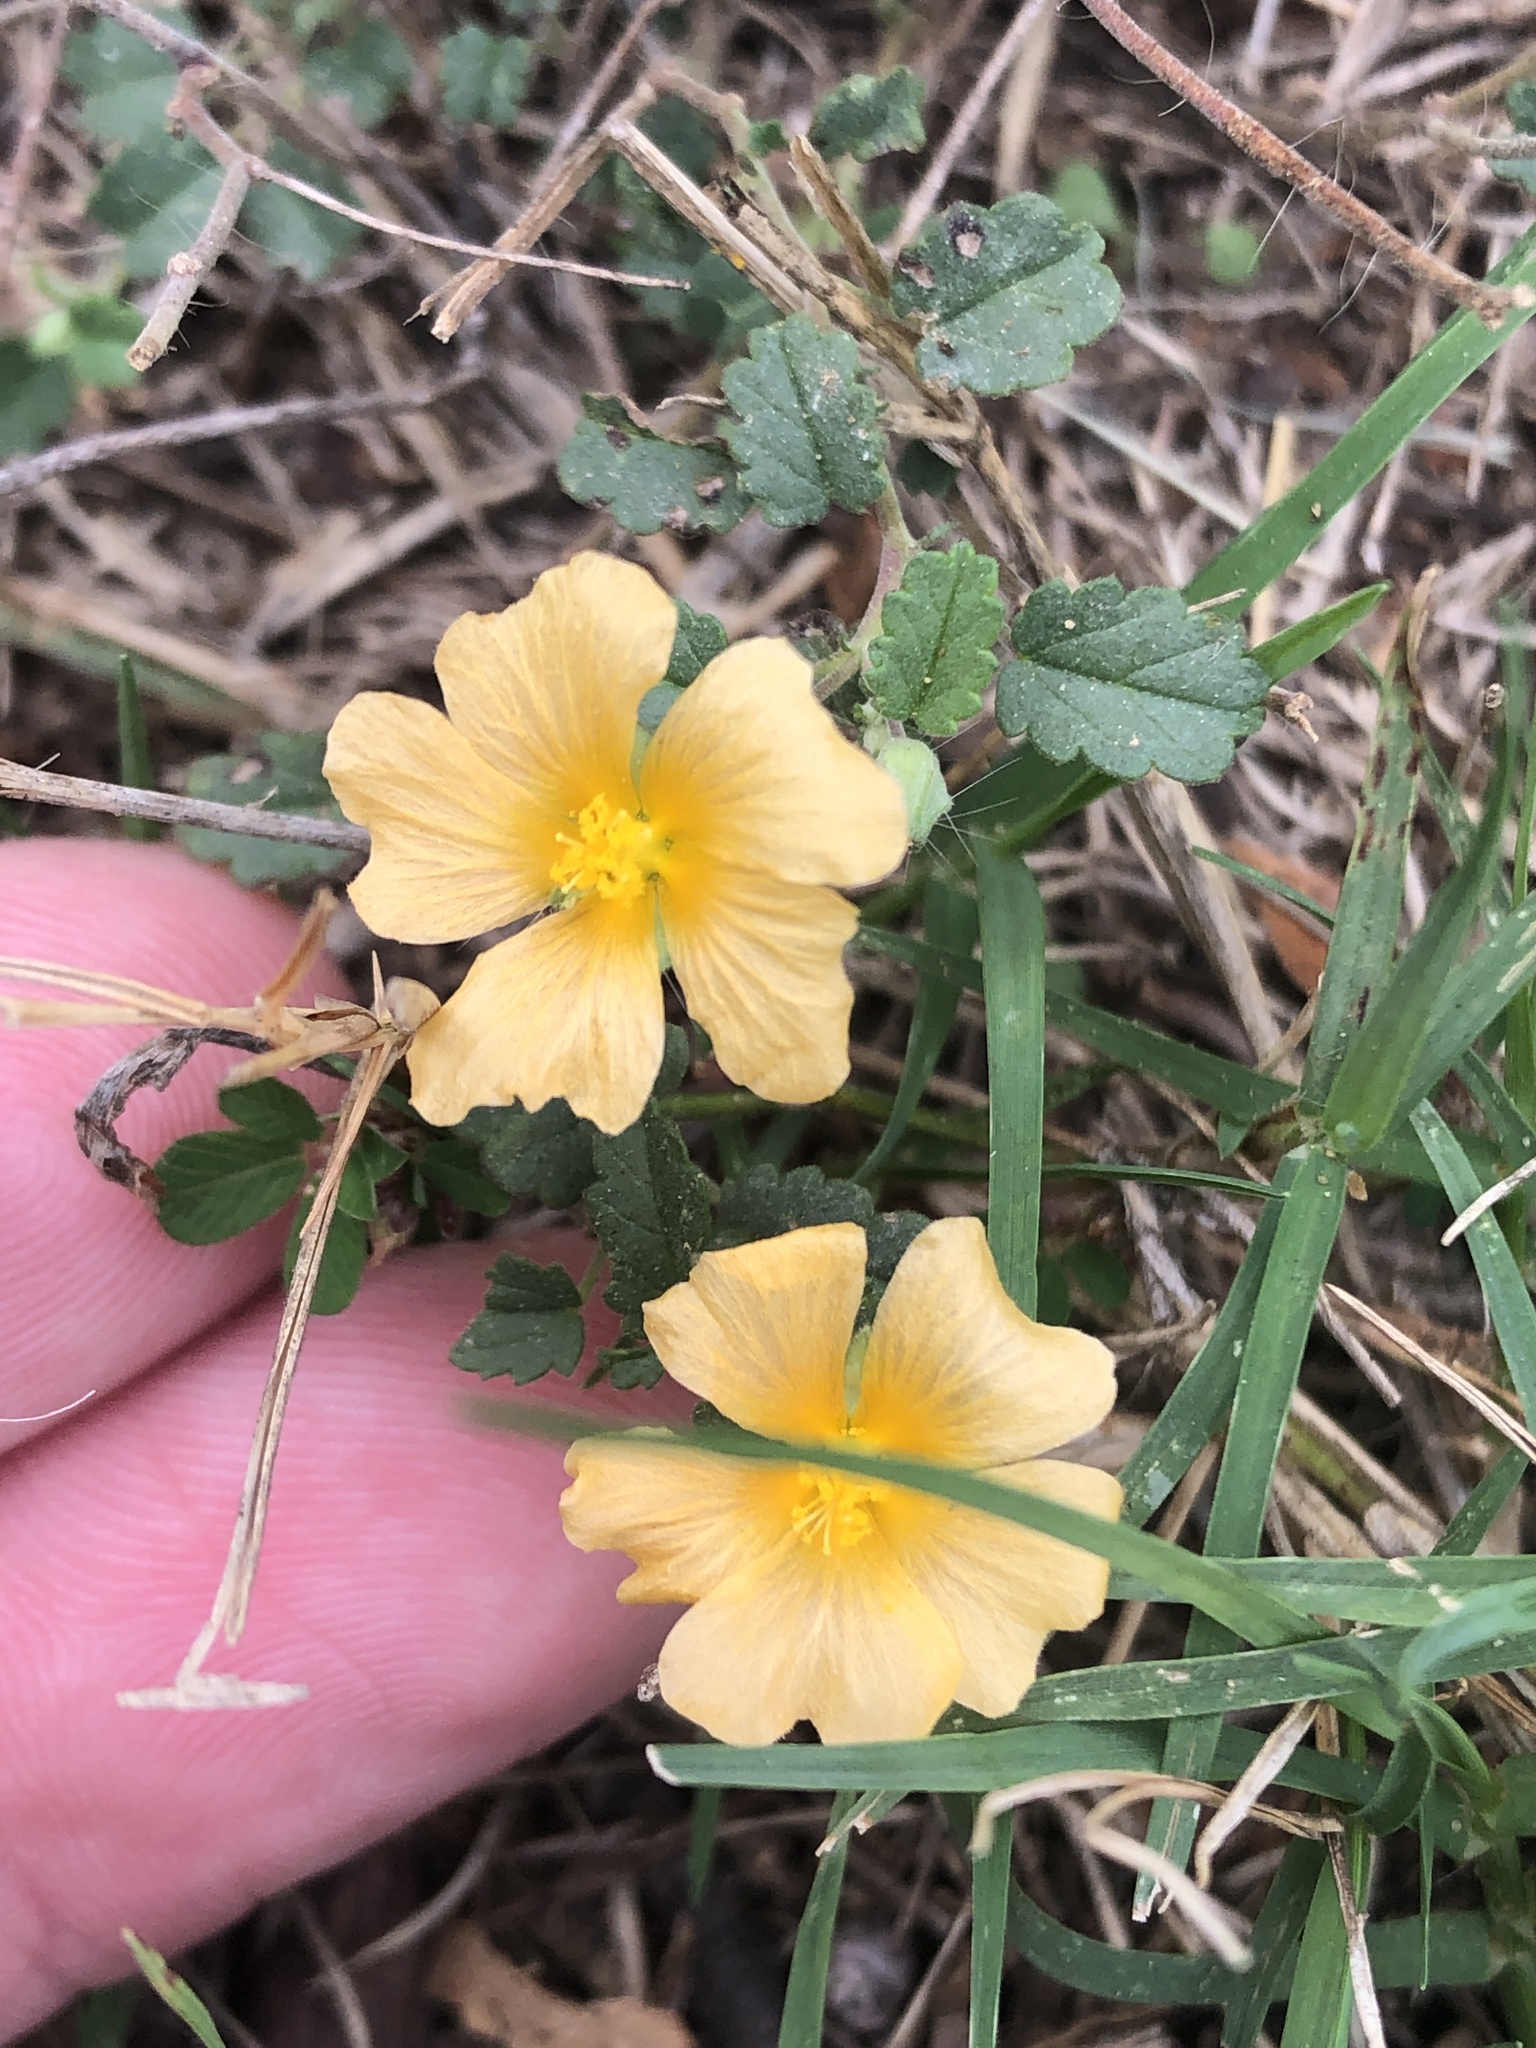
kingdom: Plantae
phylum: Tracheophyta
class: Magnoliopsida
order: Malvales
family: Malvaceae
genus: Sida
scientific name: Sida abutilifolia
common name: Spreading fanpetals
